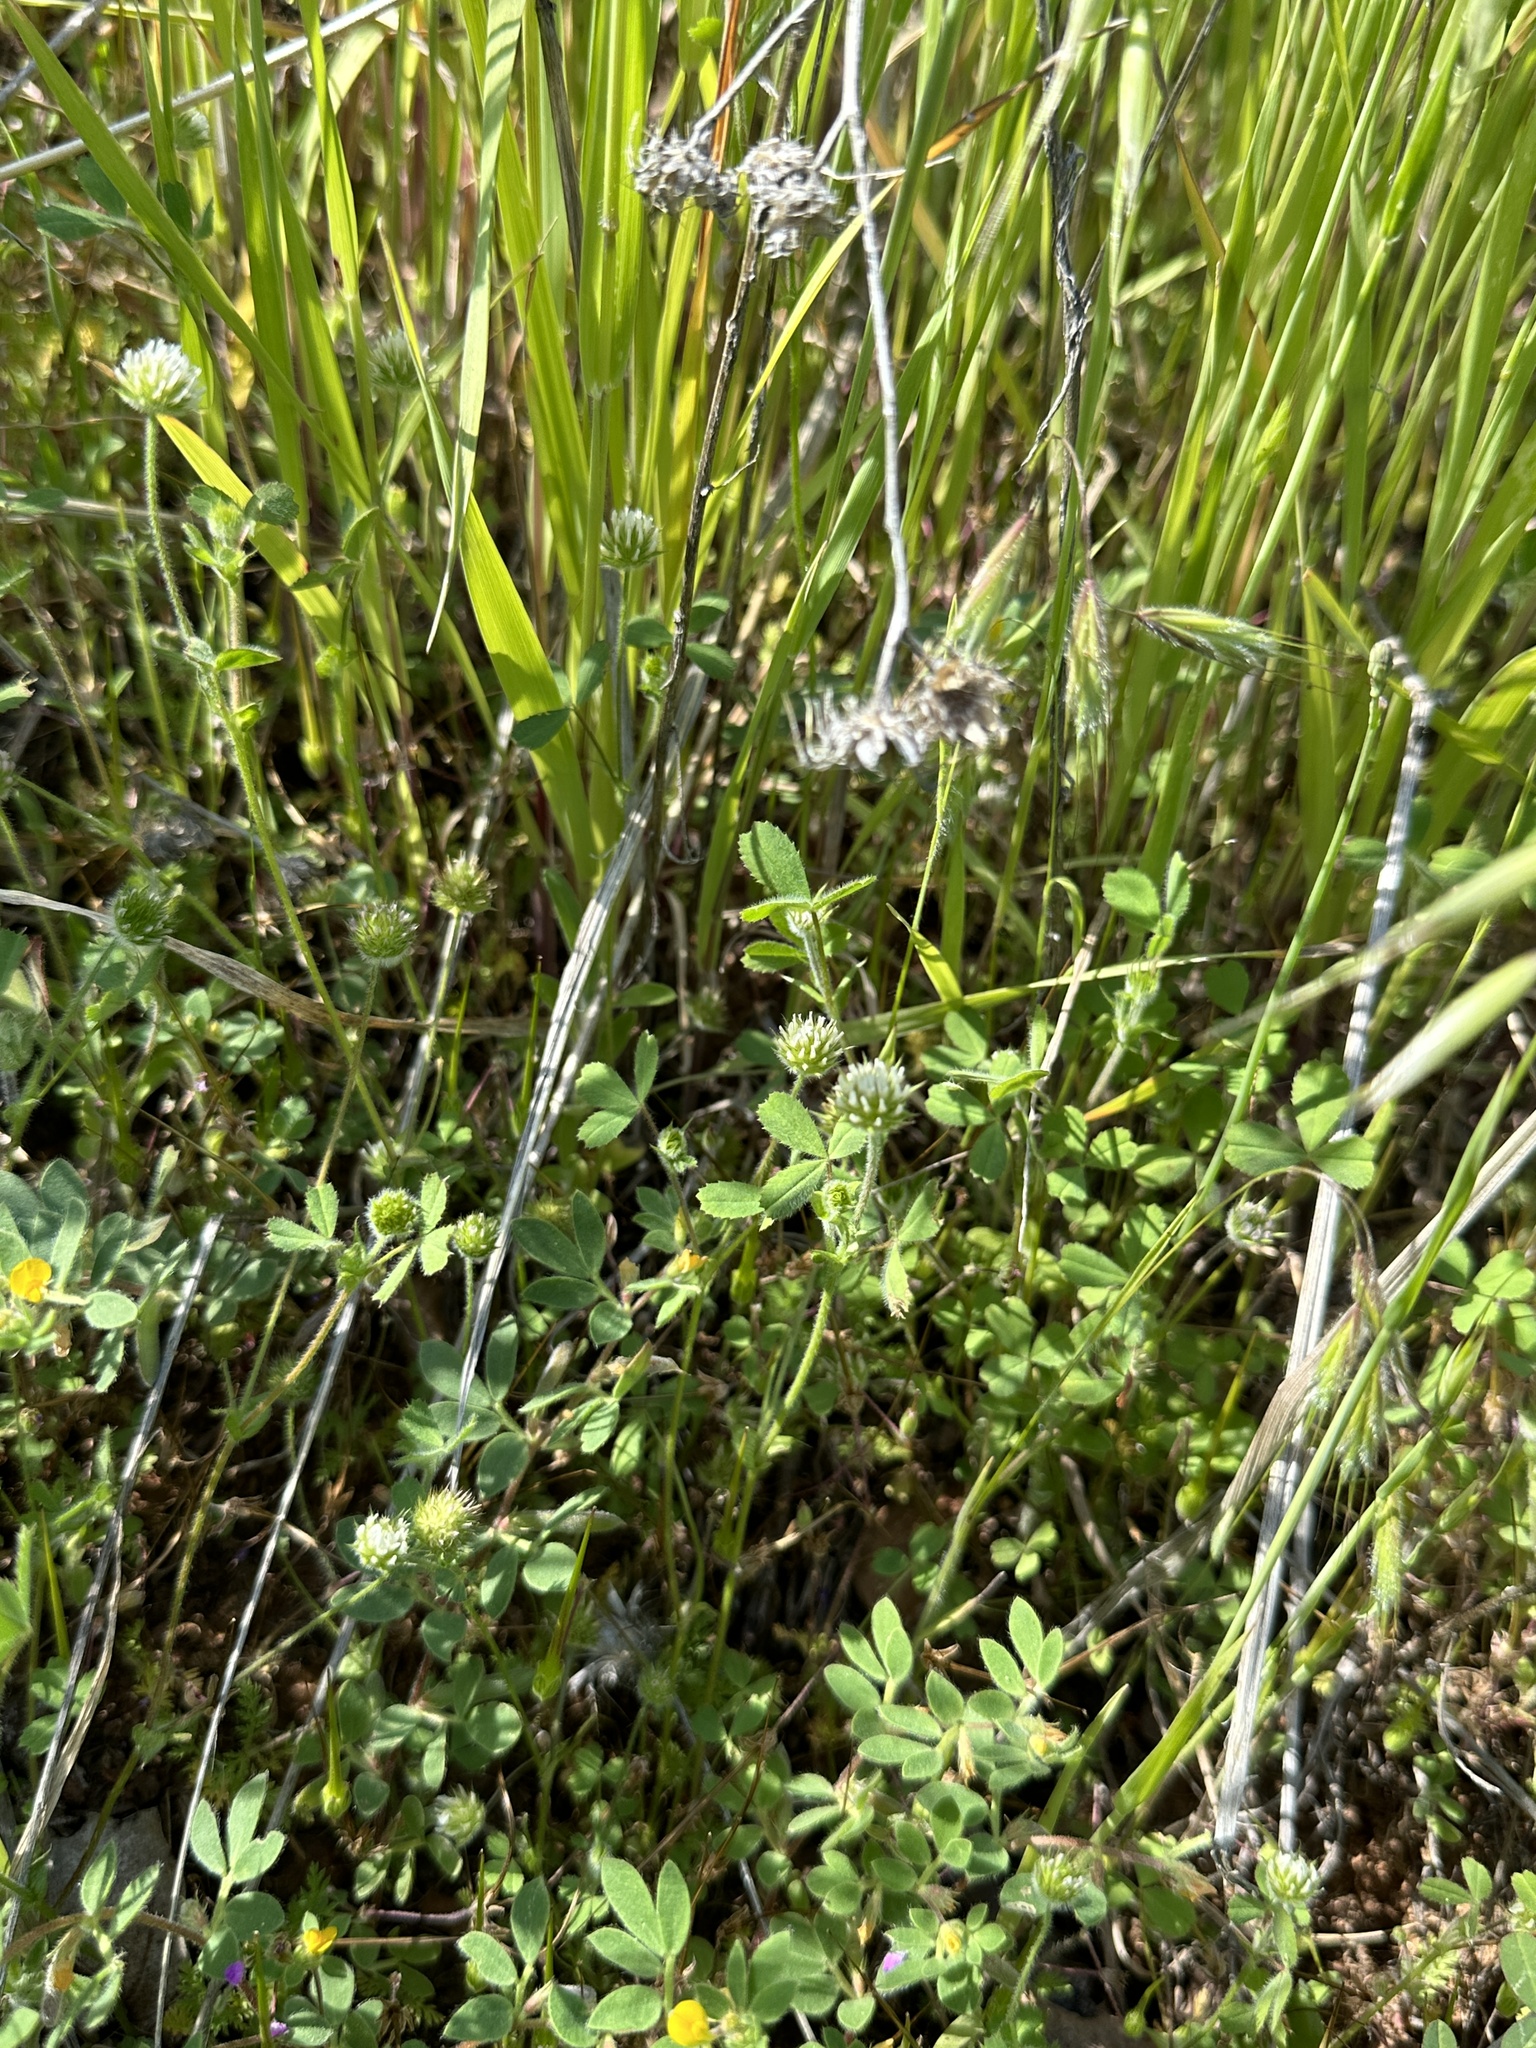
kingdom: Plantae
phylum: Tracheophyta
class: Magnoliopsida
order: Fabales
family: Fabaceae
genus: Trifolium
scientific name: Trifolium microcephalum
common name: Maiden clover
